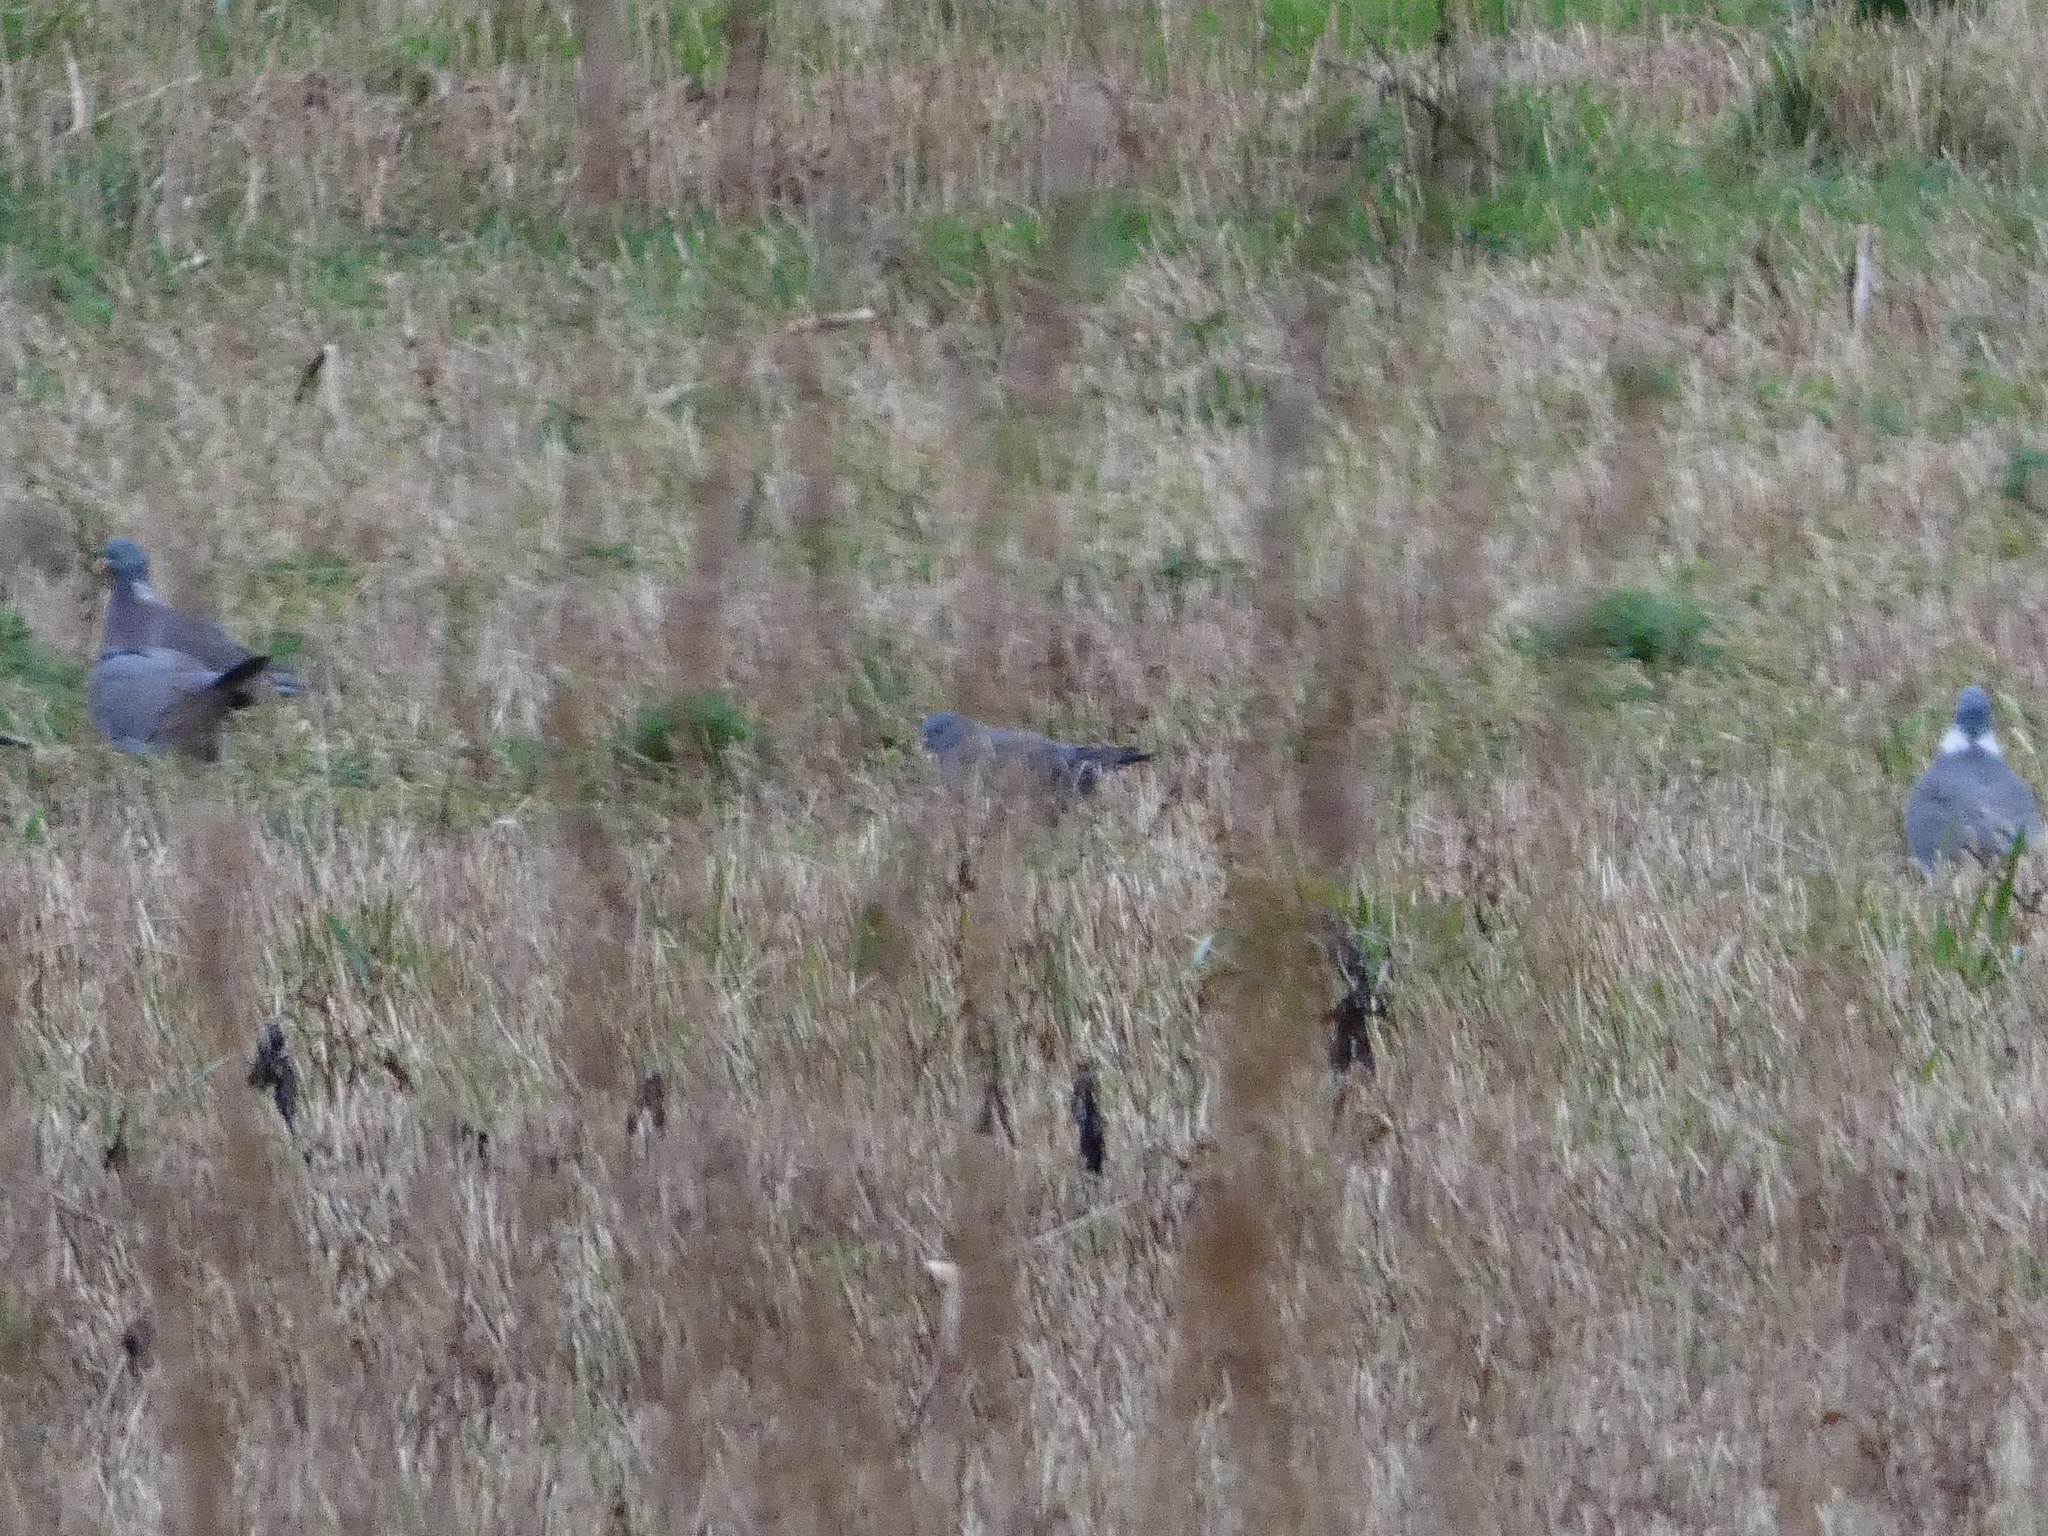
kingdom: Animalia
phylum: Chordata
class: Aves
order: Columbiformes
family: Columbidae
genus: Columba
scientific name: Columba oenas
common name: Stock dove
